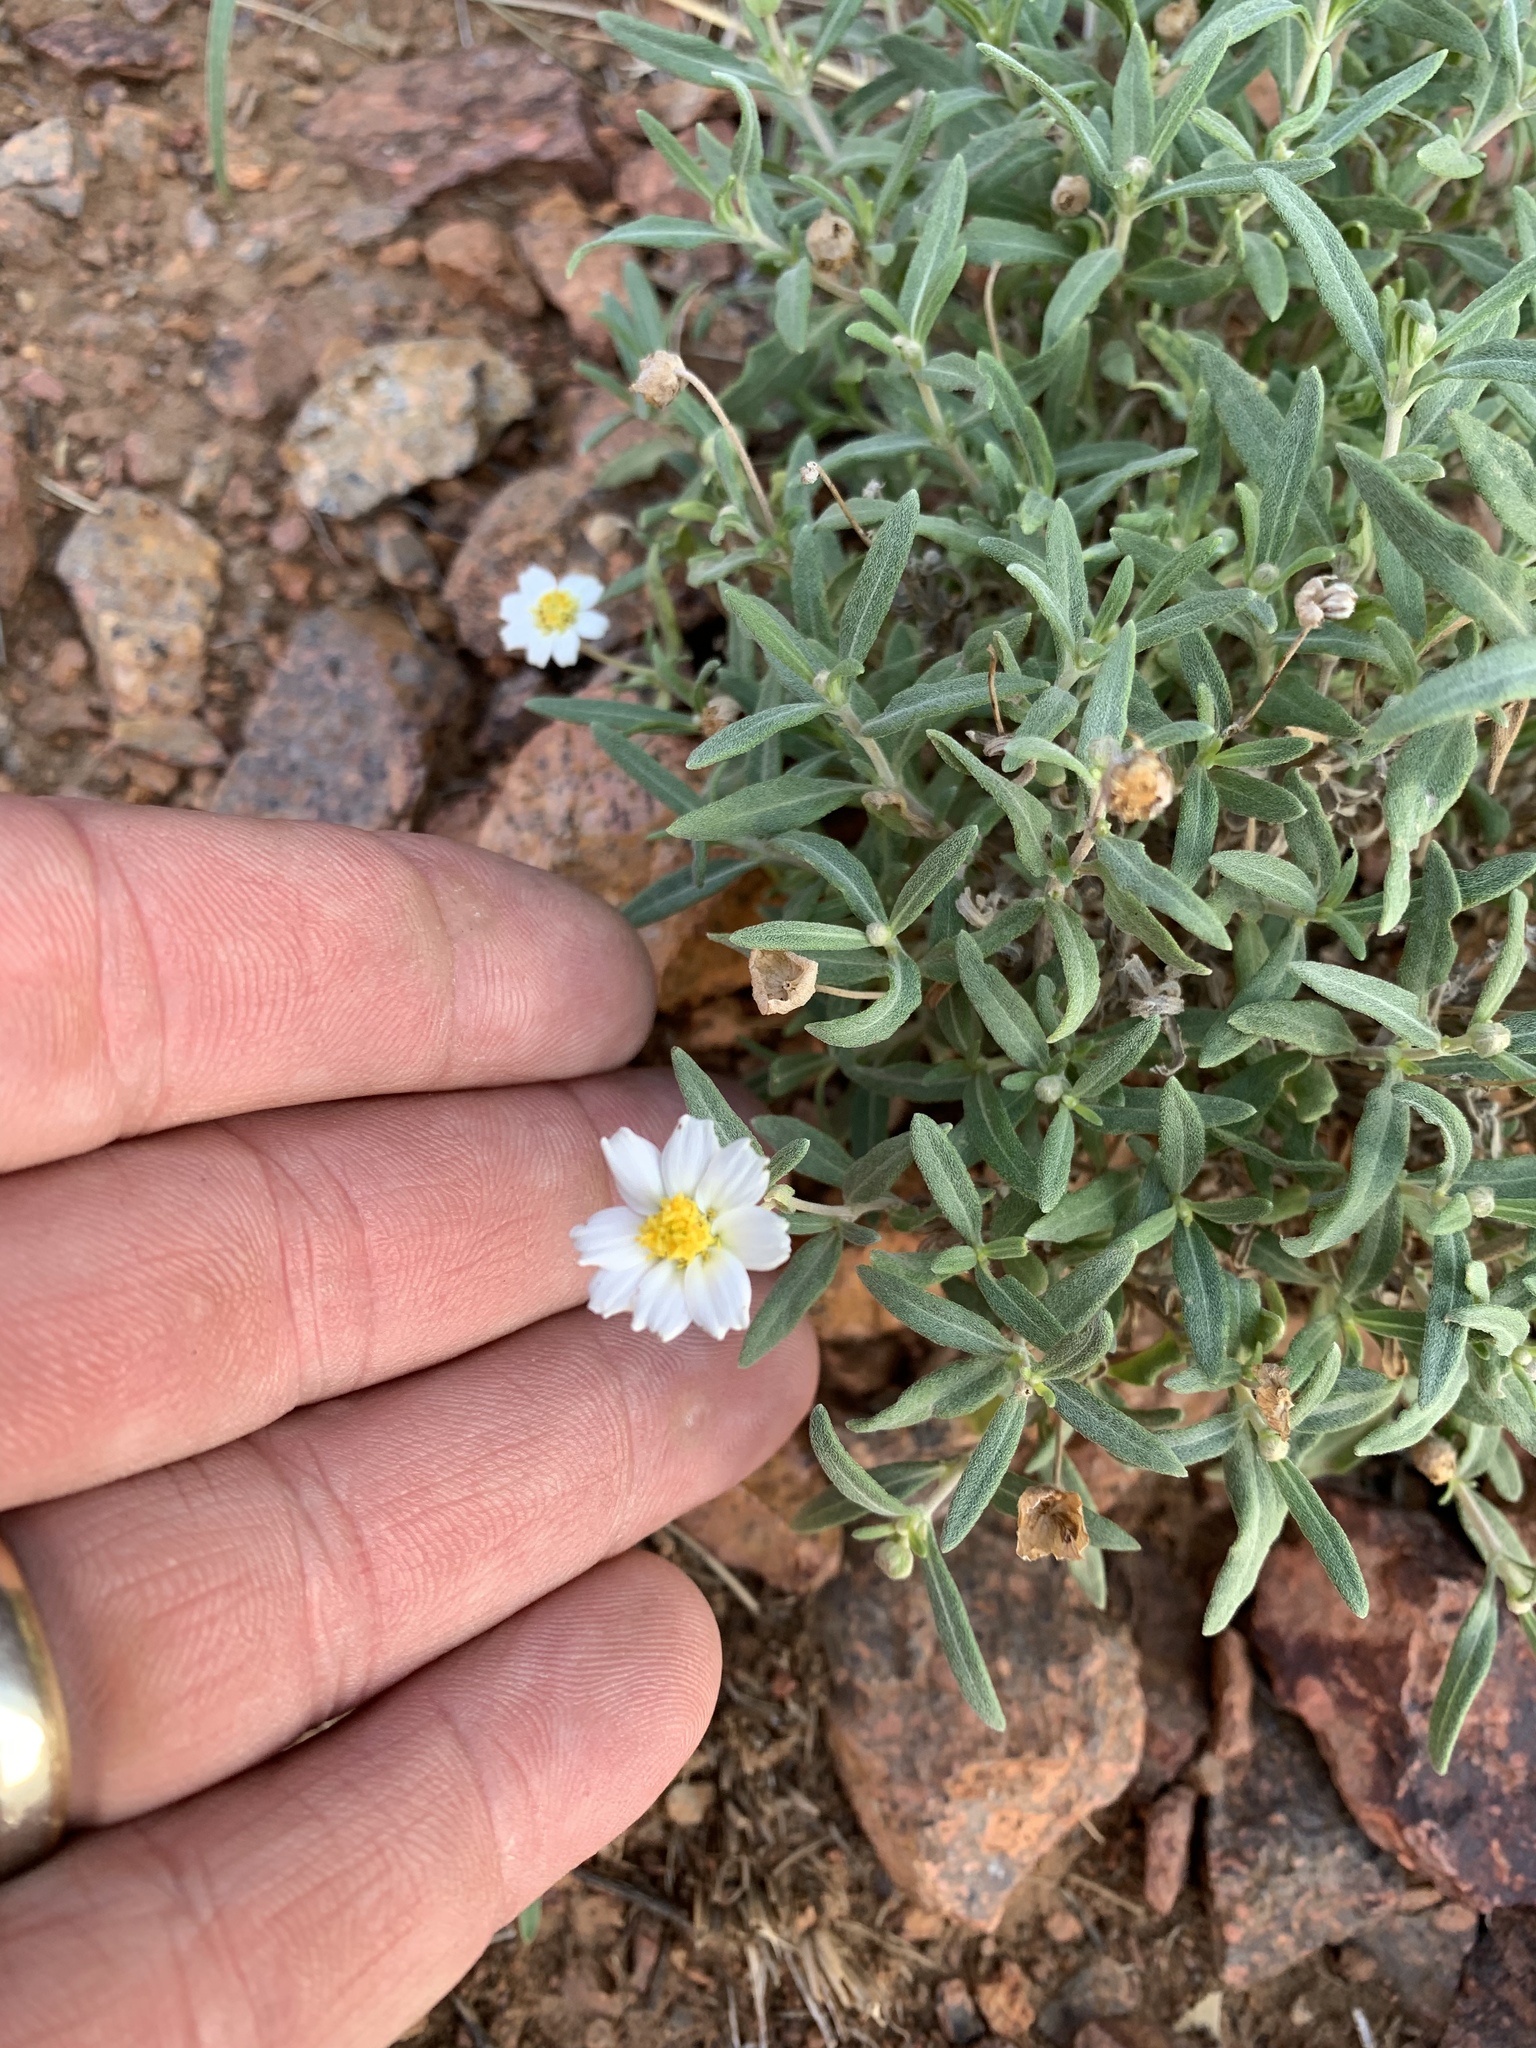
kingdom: Plantae
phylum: Tracheophyta
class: Magnoliopsida
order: Asterales
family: Asteraceae
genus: Melampodium
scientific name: Melampodium leucanthum
